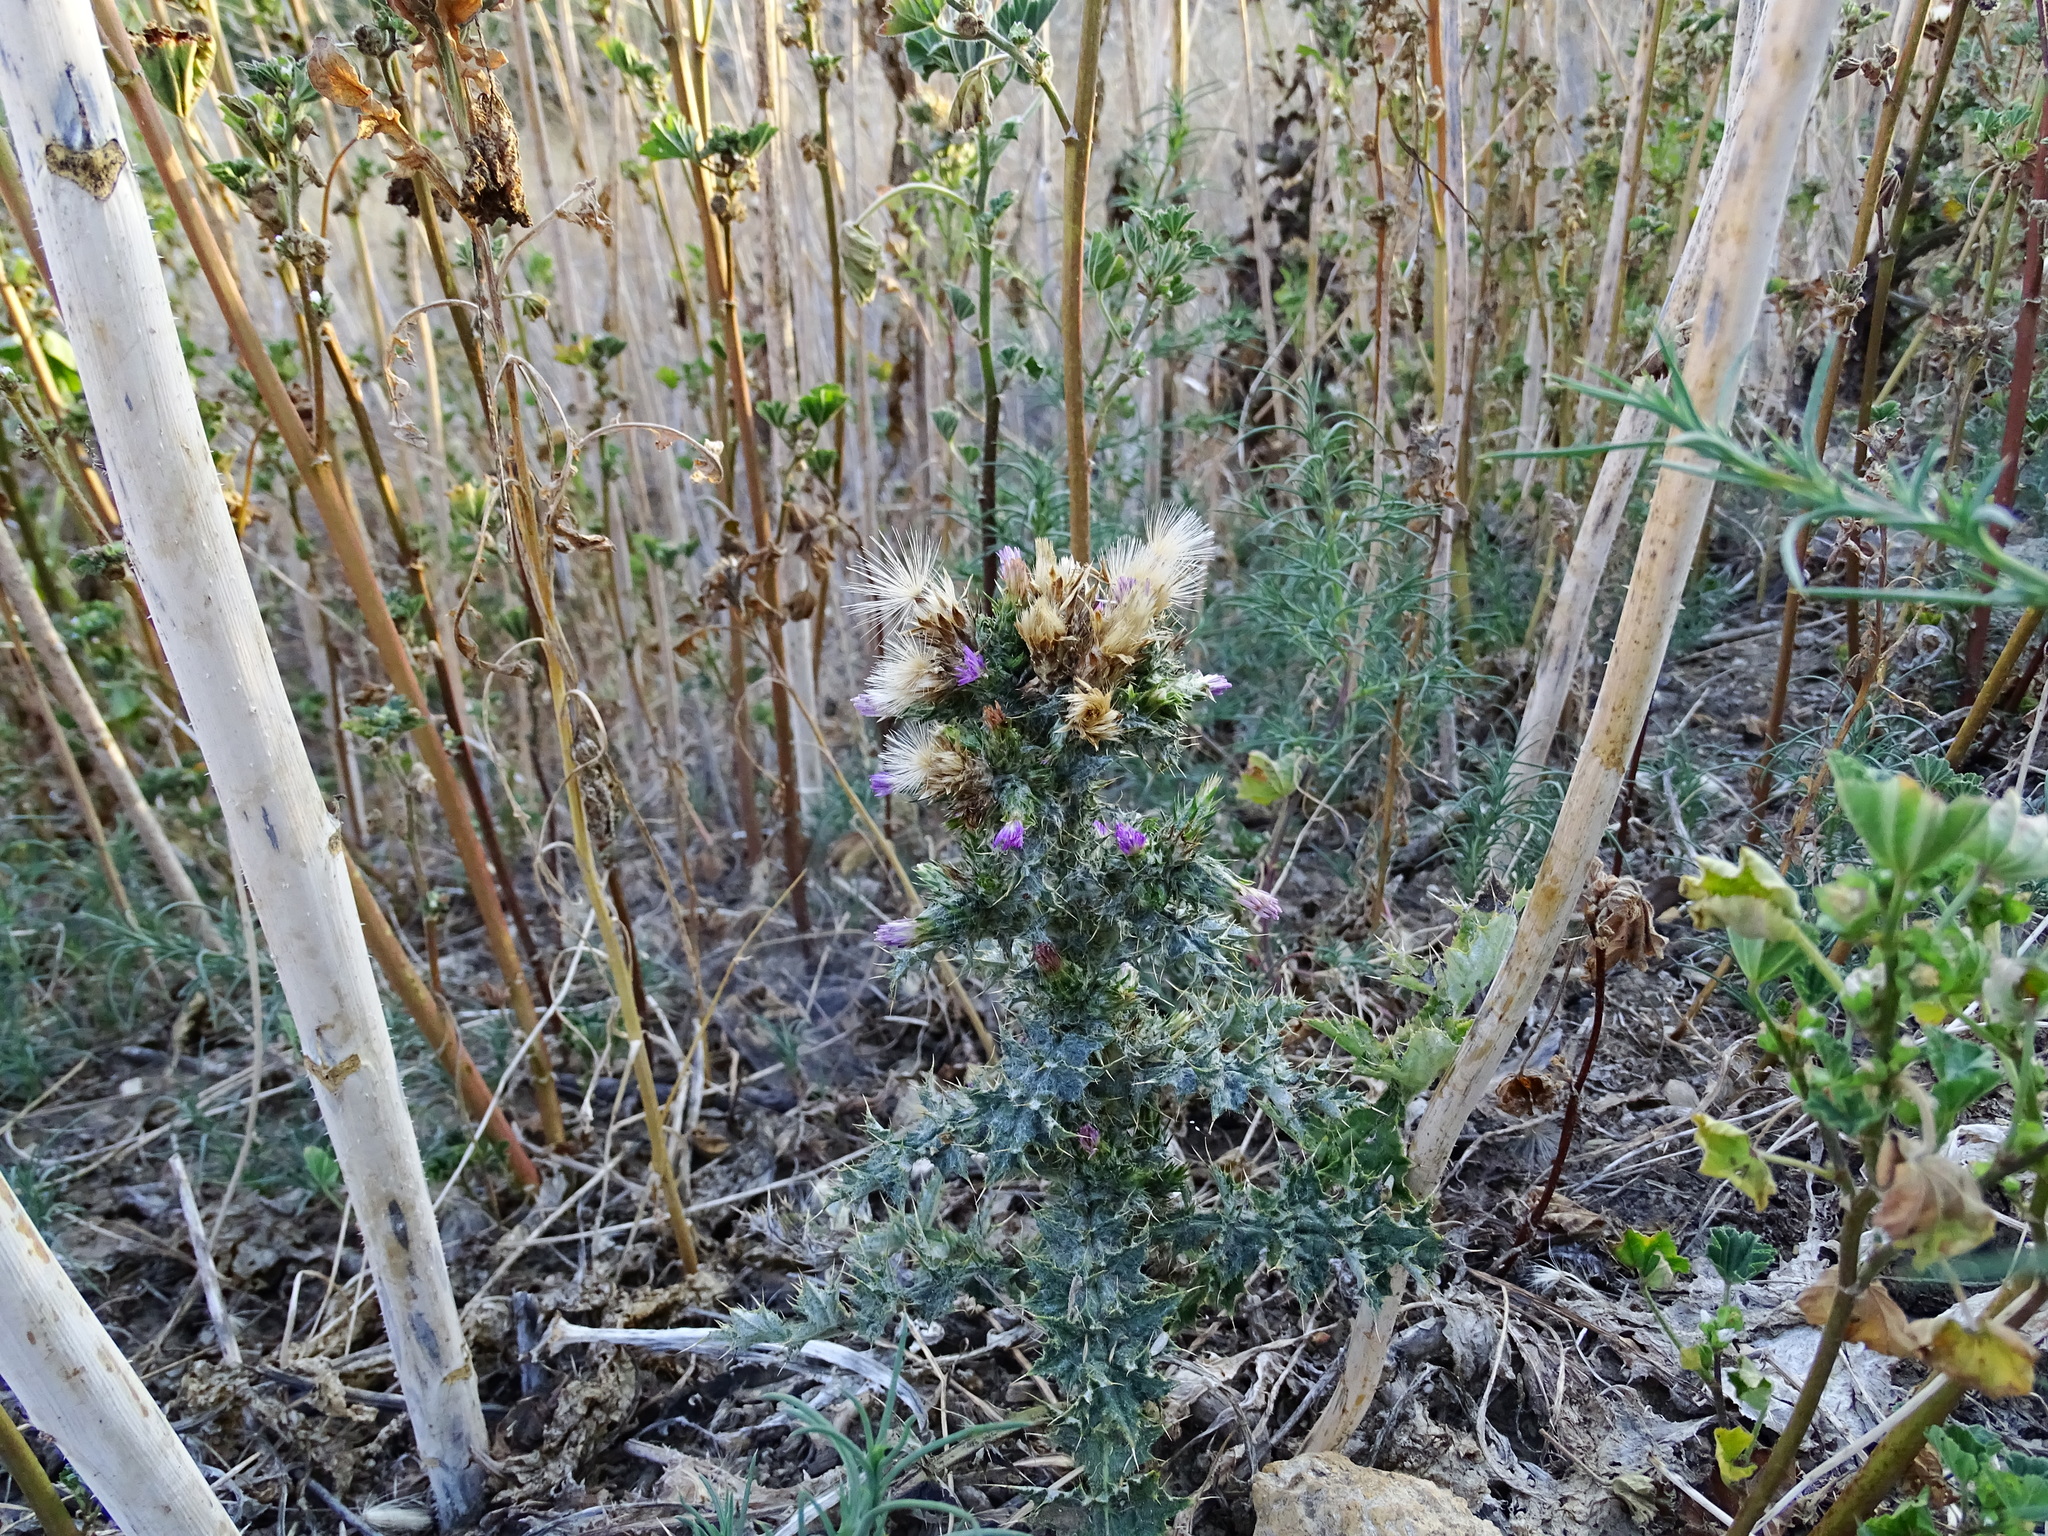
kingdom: Plantae
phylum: Tracheophyta
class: Magnoliopsida
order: Asterales
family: Asteraceae
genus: Carduus
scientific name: Carduus pycnocephalus
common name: Plymouth thistle
